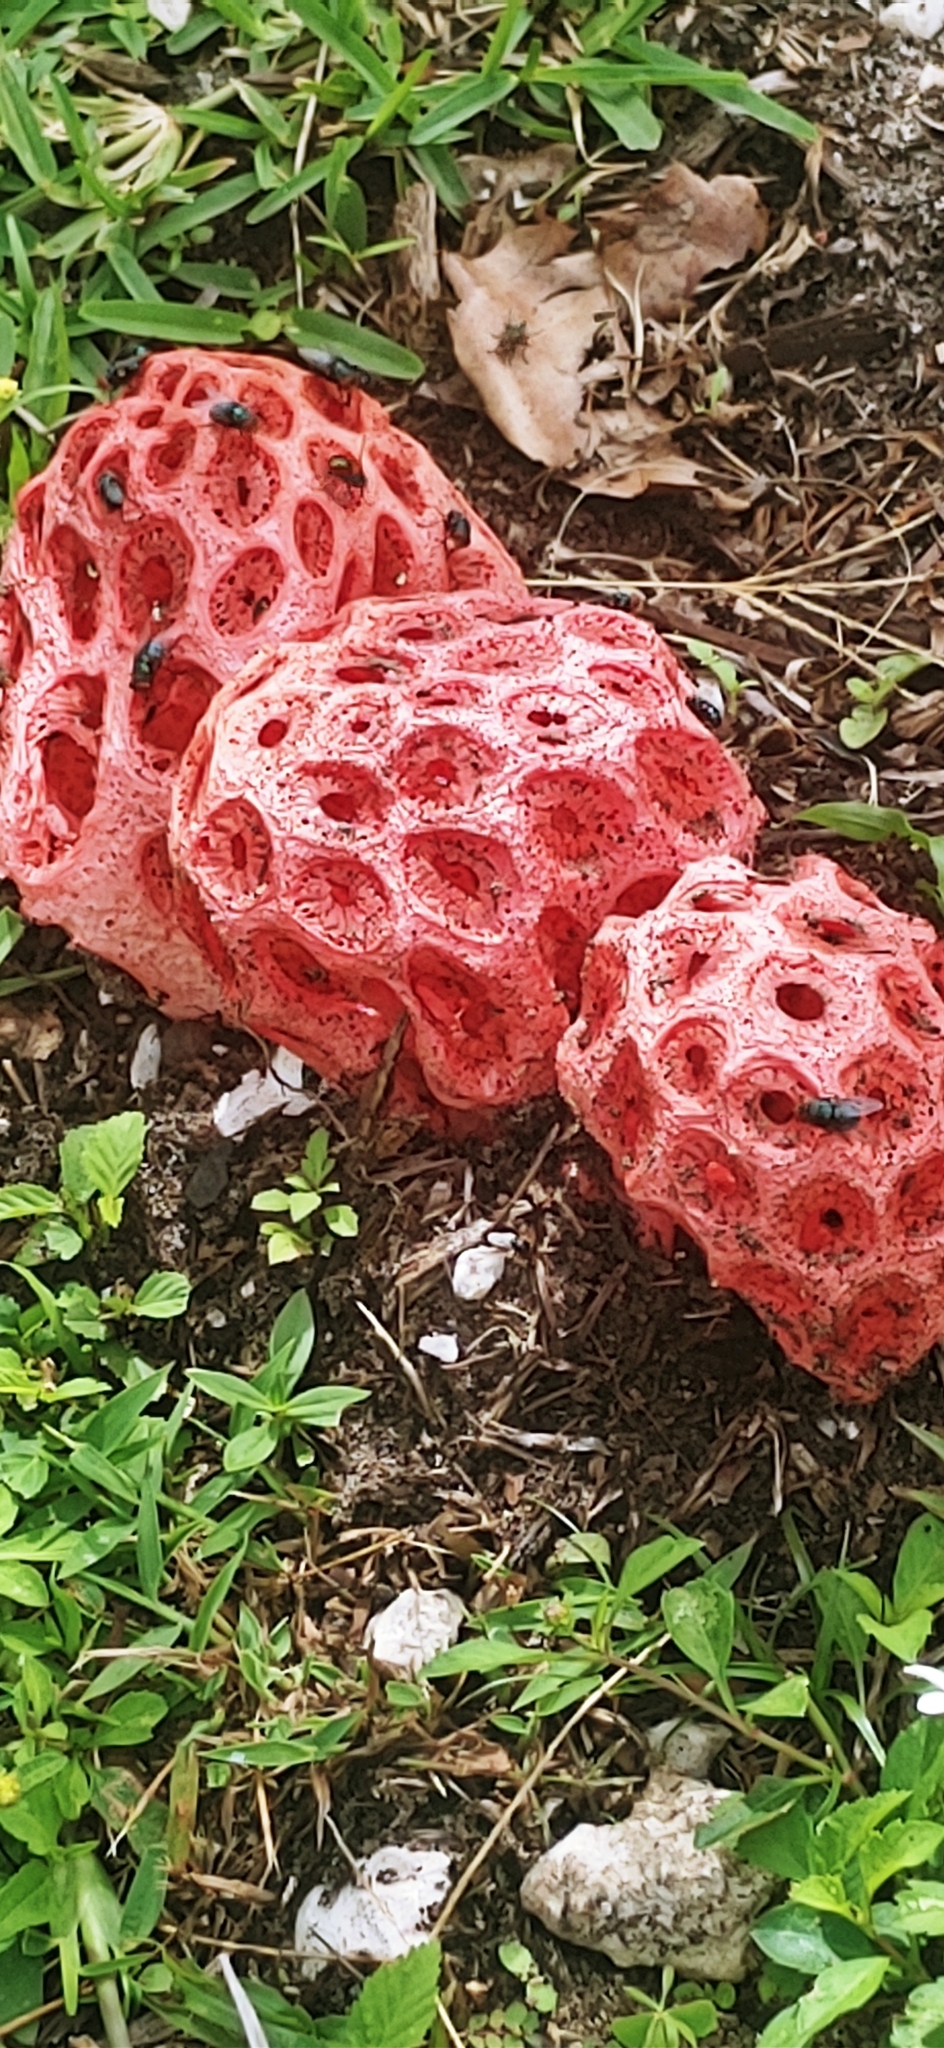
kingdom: Fungi
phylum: Basidiomycota
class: Agaricomycetes
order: Phallales
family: Phallaceae
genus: Clathrus
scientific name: Clathrus crispatus
